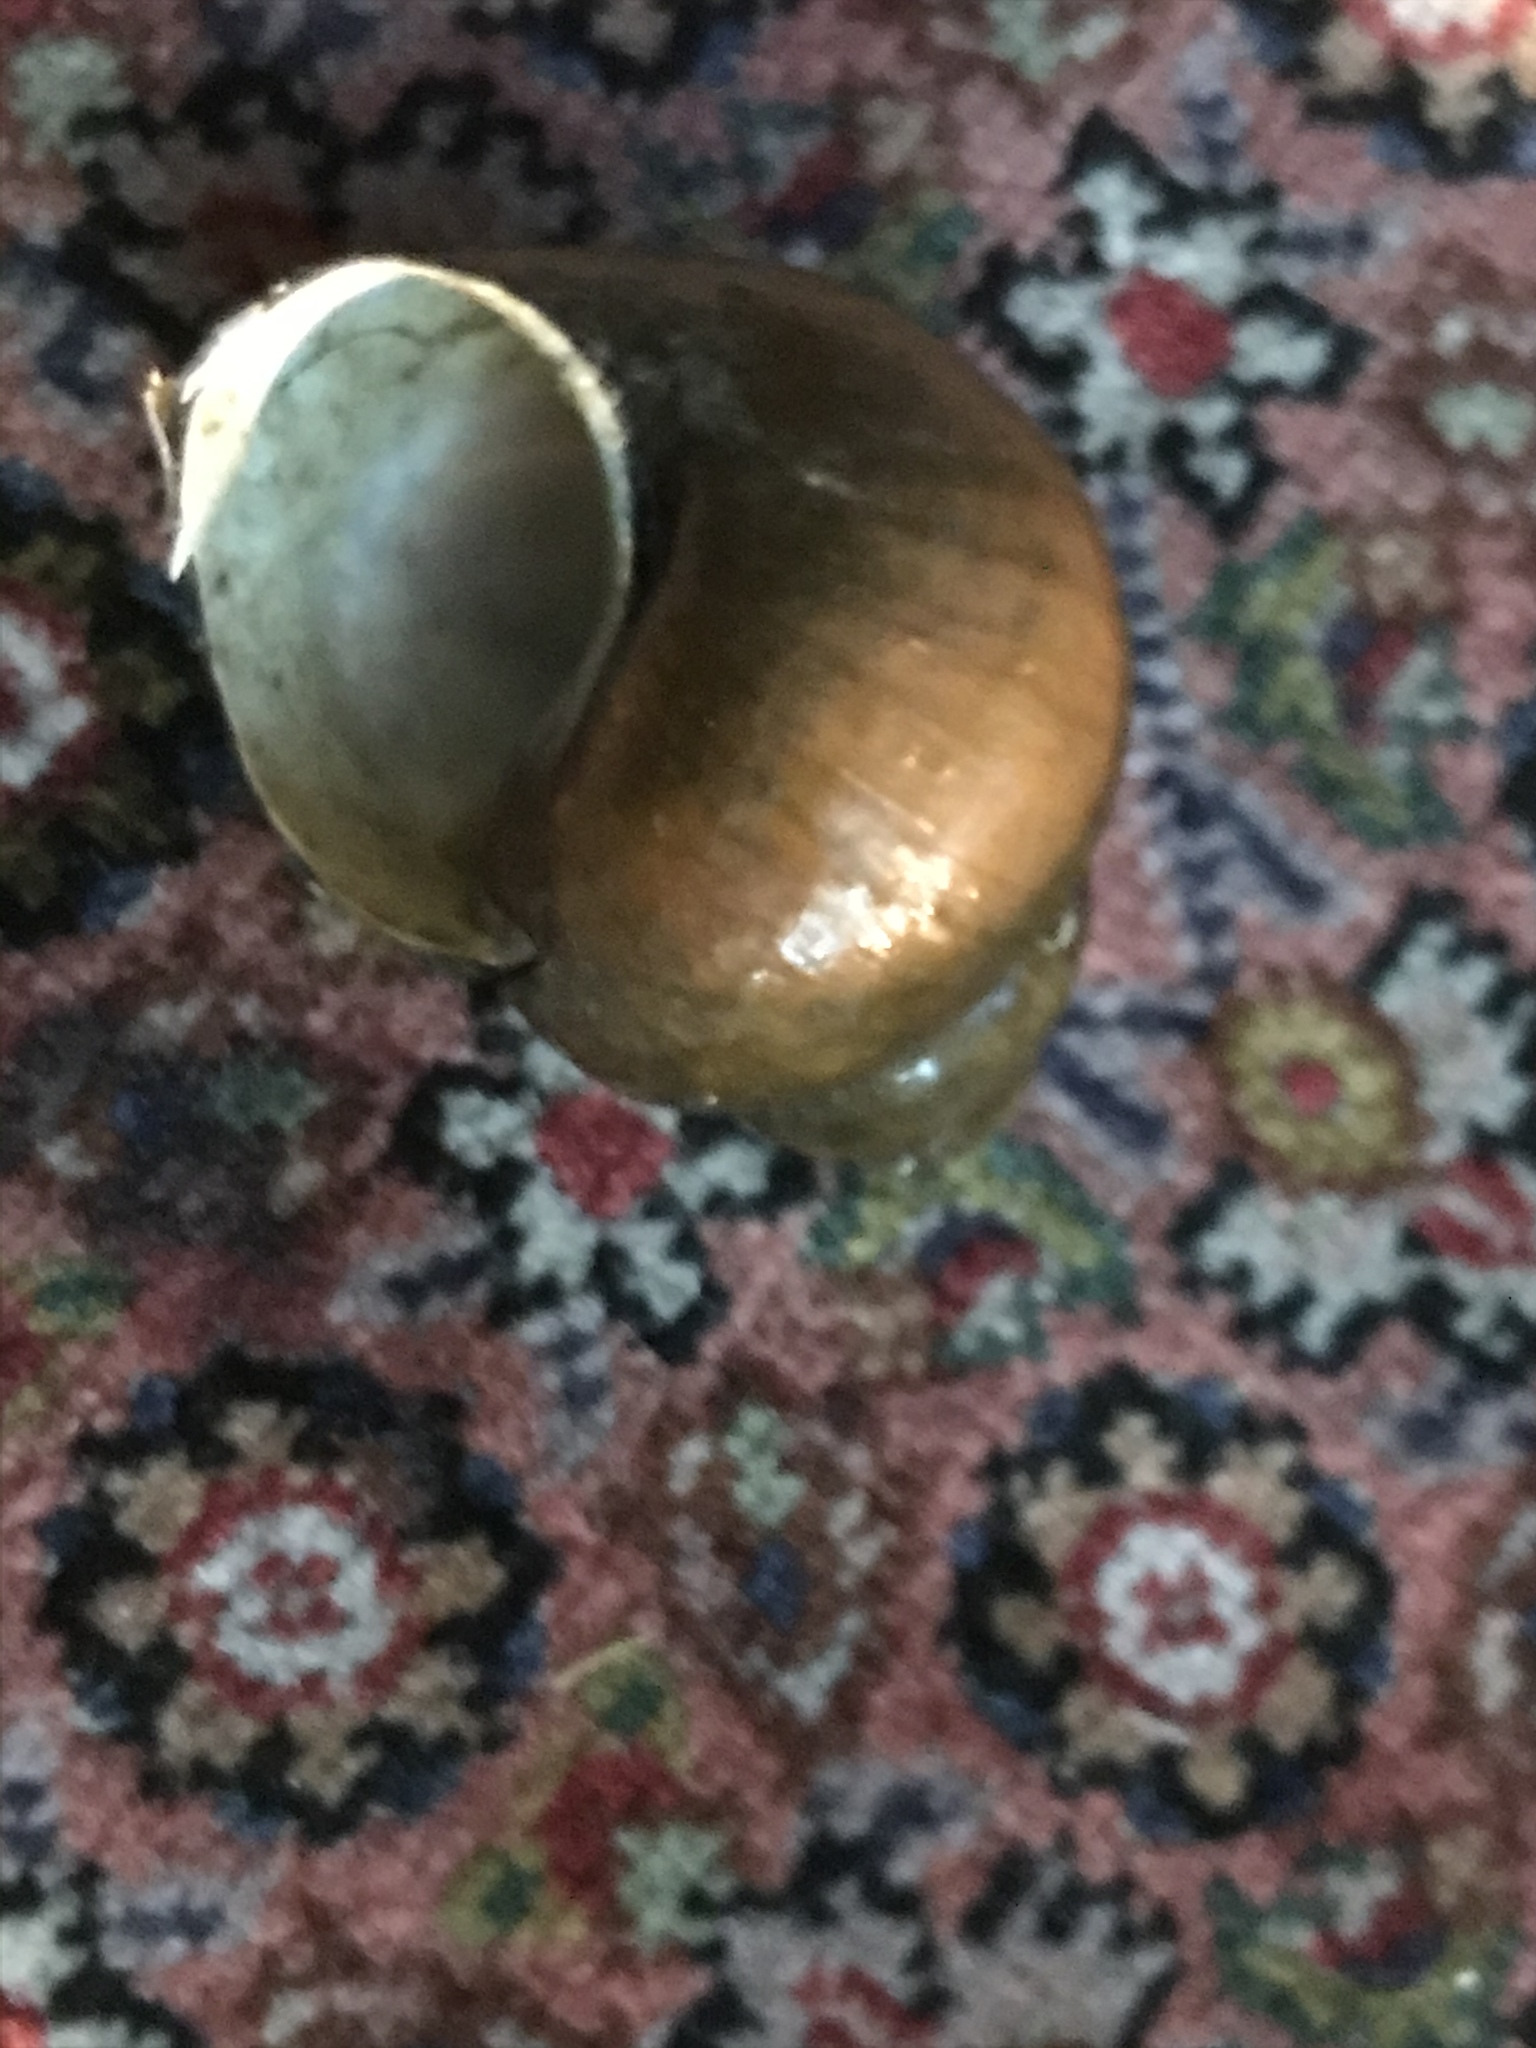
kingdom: Animalia
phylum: Mollusca
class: Gastropoda
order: Architaenioglossa
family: Viviparidae
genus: Cipangopaludina
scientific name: Cipangopaludina chinensis
